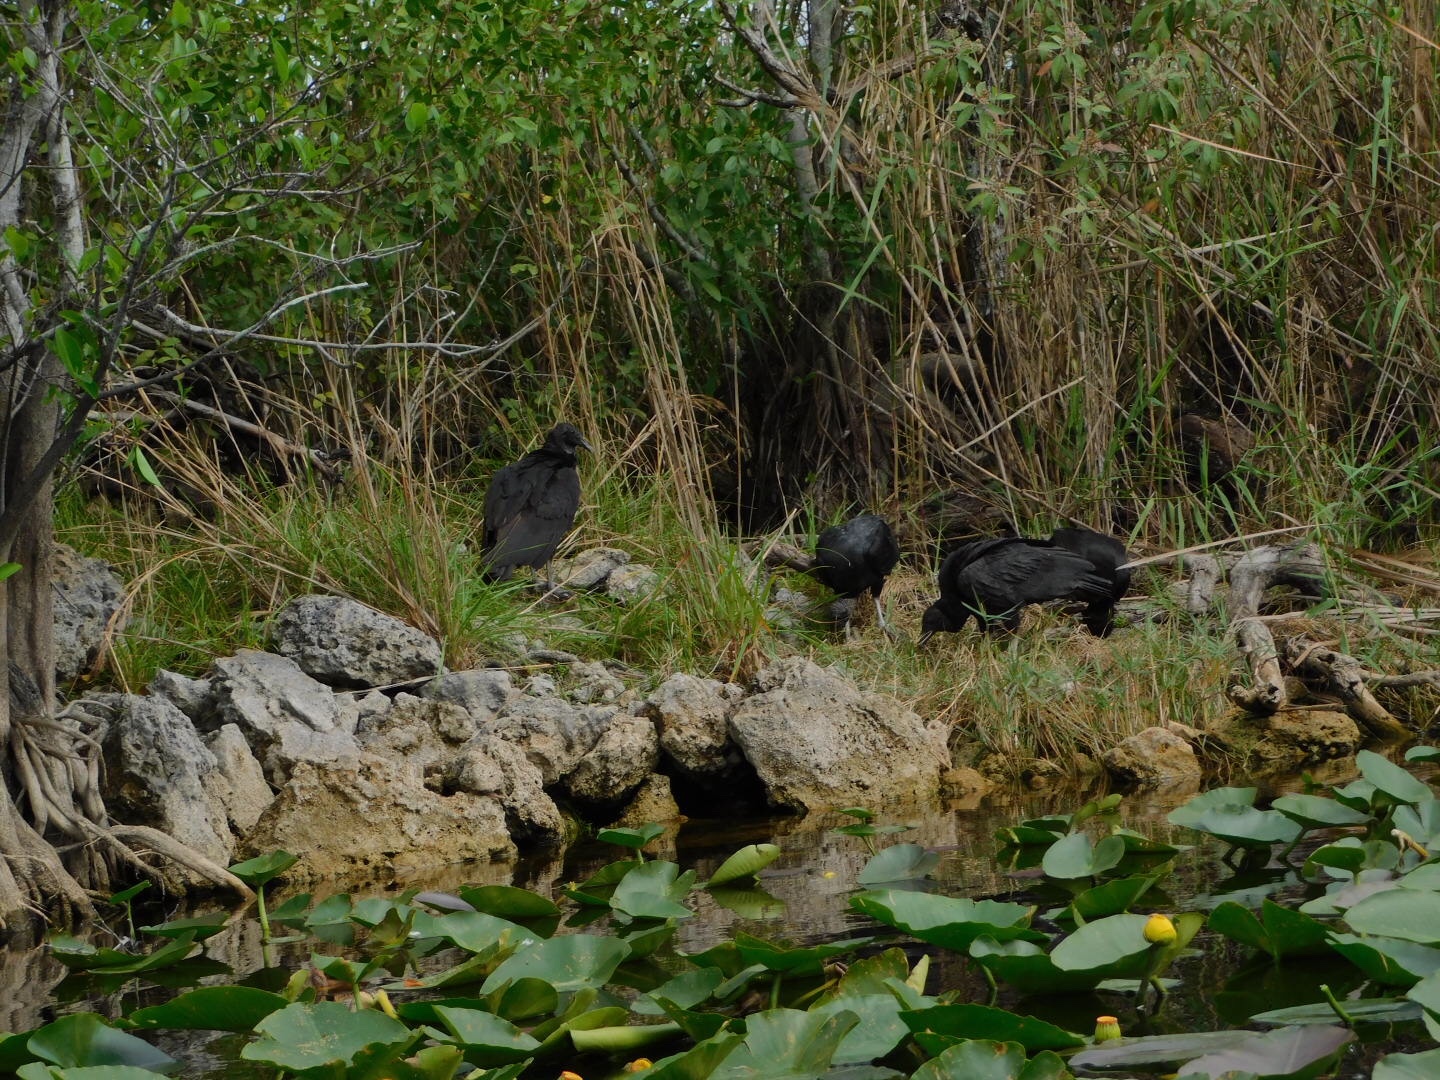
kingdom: Animalia
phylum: Chordata
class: Aves
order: Accipitriformes
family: Cathartidae
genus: Coragyps
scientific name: Coragyps atratus
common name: Black vulture
